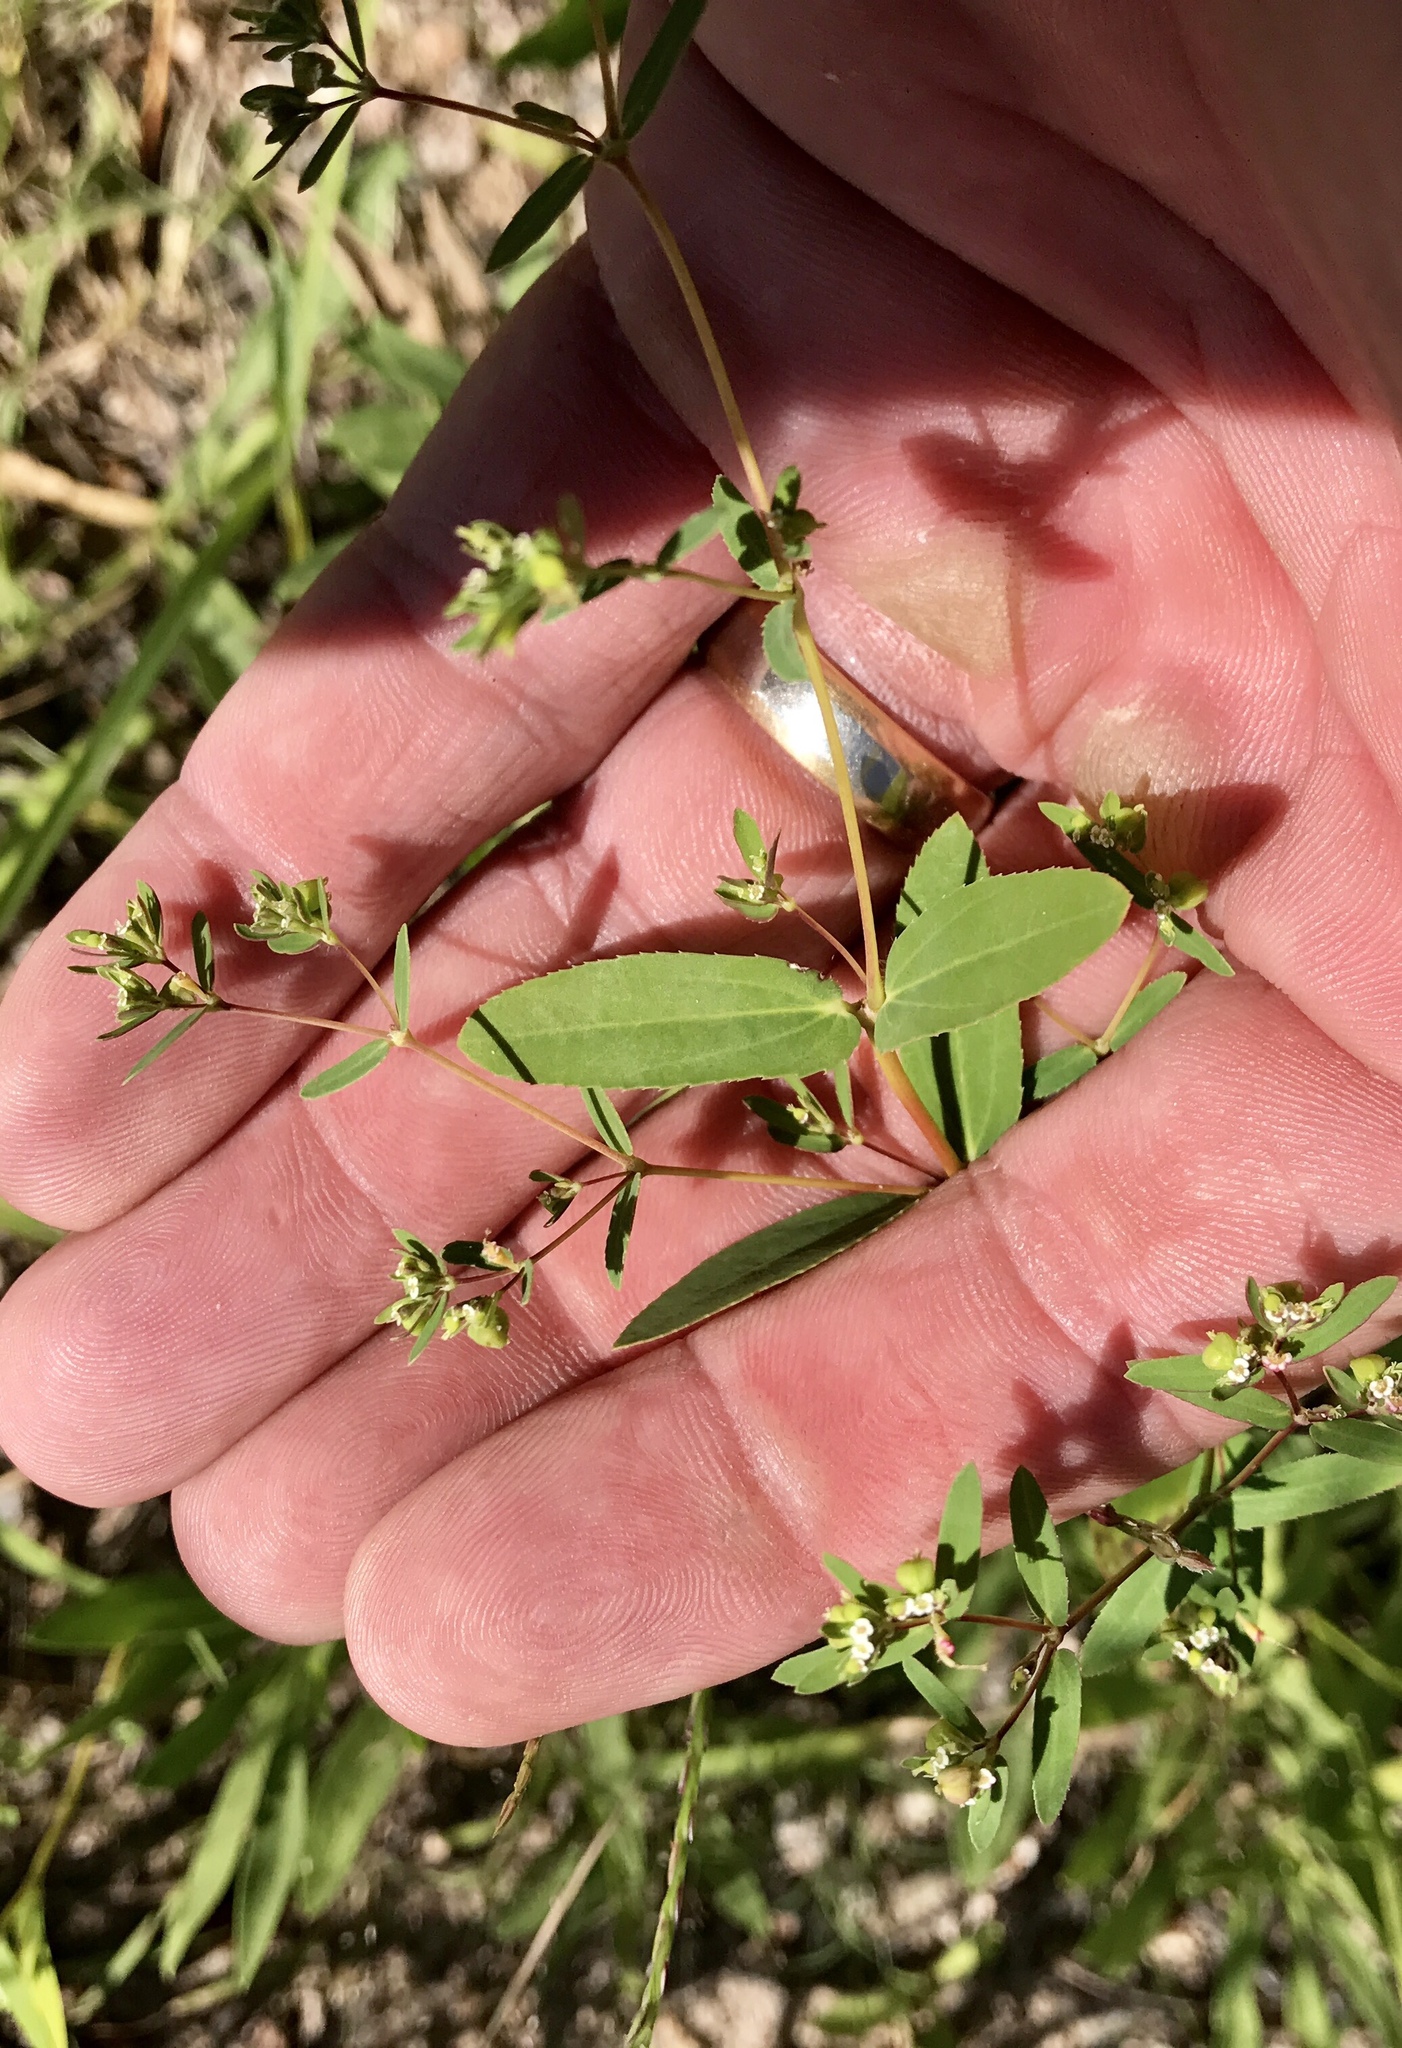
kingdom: Plantae
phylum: Tracheophyta
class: Magnoliopsida
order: Malpighiales
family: Euphorbiaceae
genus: Euphorbia
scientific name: Euphorbia hyssopifolia
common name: Hyssopleaf sandmat
